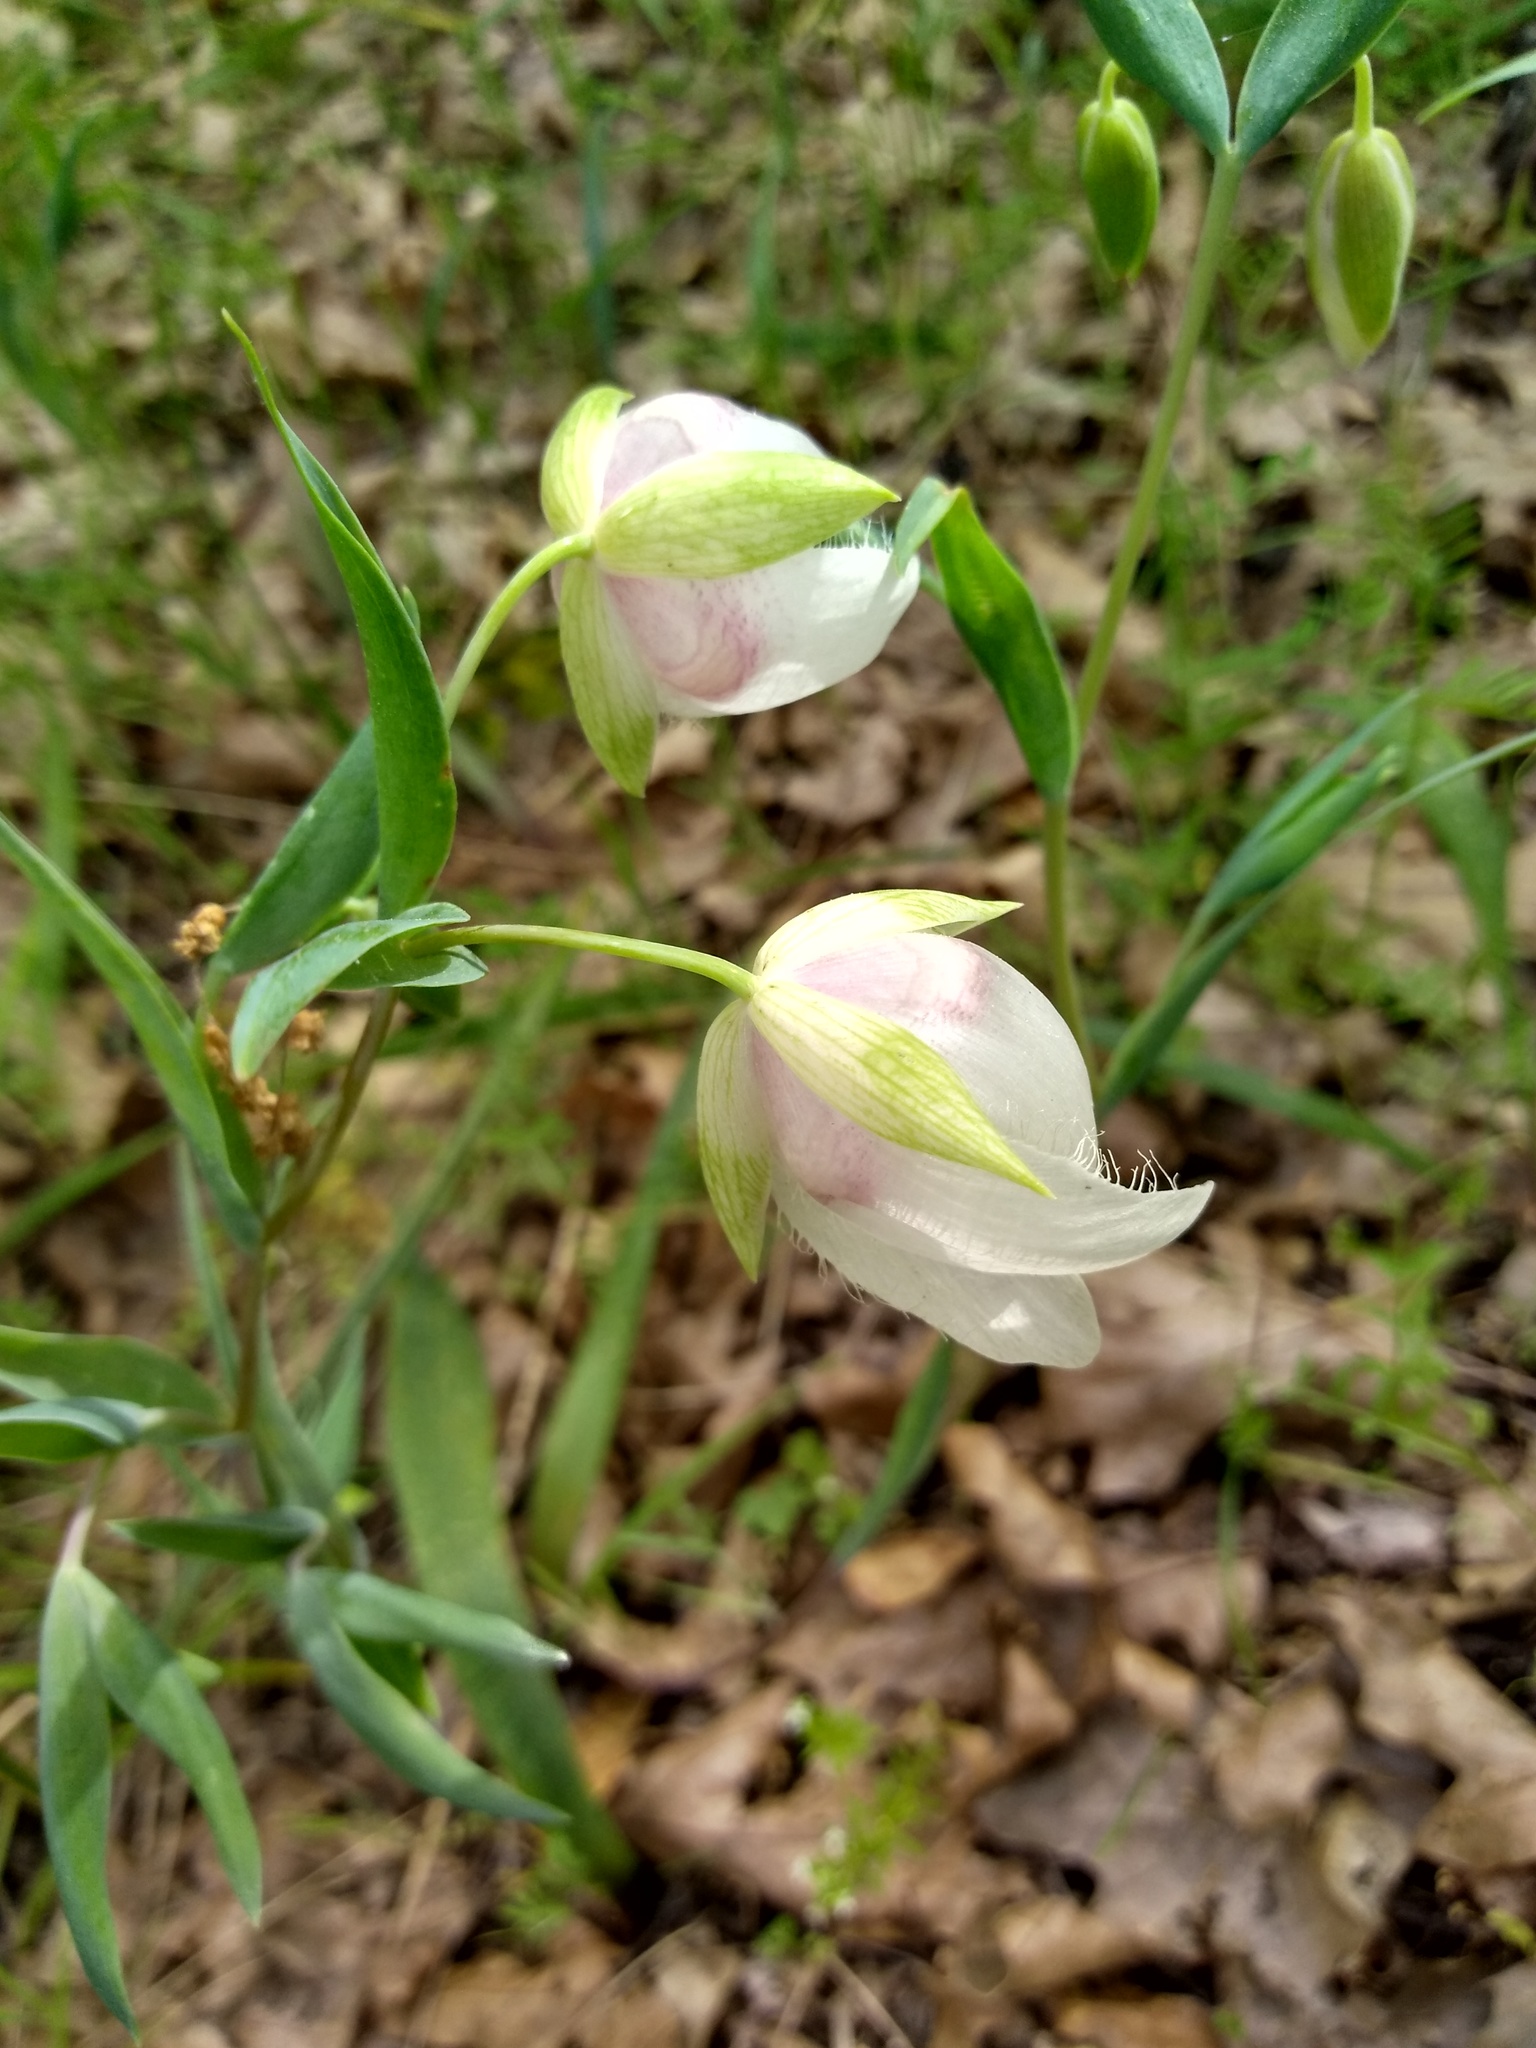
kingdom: Plantae
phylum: Tracheophyta
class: Liliopsida
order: Liliales
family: Liliaceae
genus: Calochortus
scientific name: Calochortus albus
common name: Fairy-lantern
